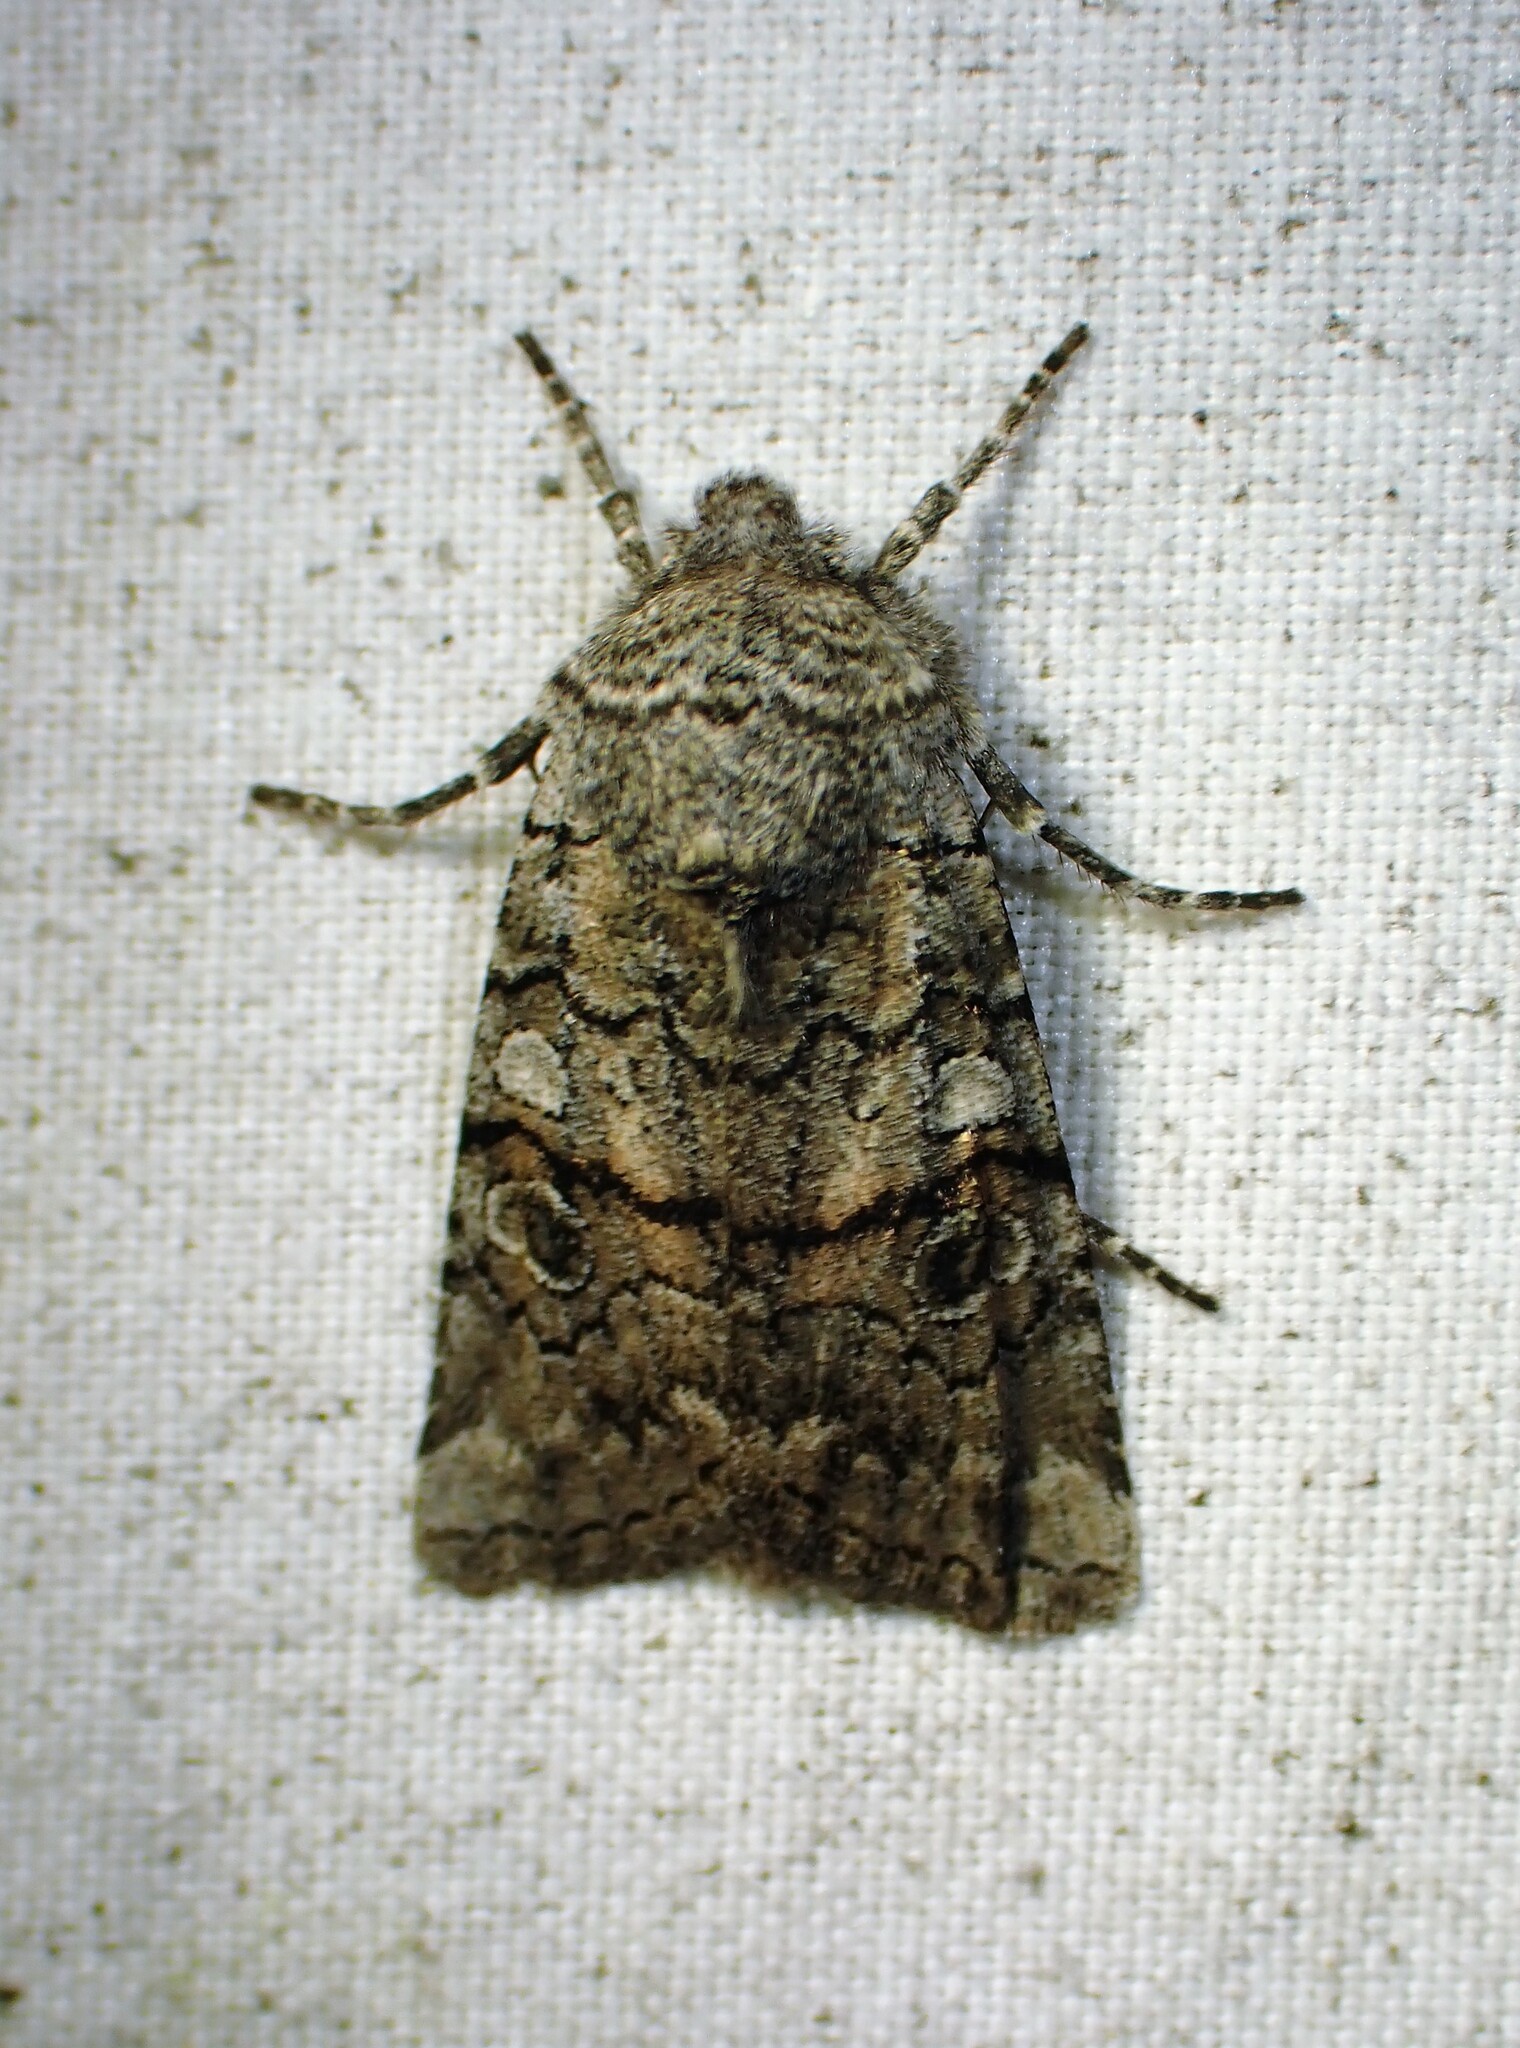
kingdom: Animalia
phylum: Arthropoda
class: Insecta
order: Lepidoptera
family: Noctuidae
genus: Litholomia
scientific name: Litholomia napaea
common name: False pinion moth
